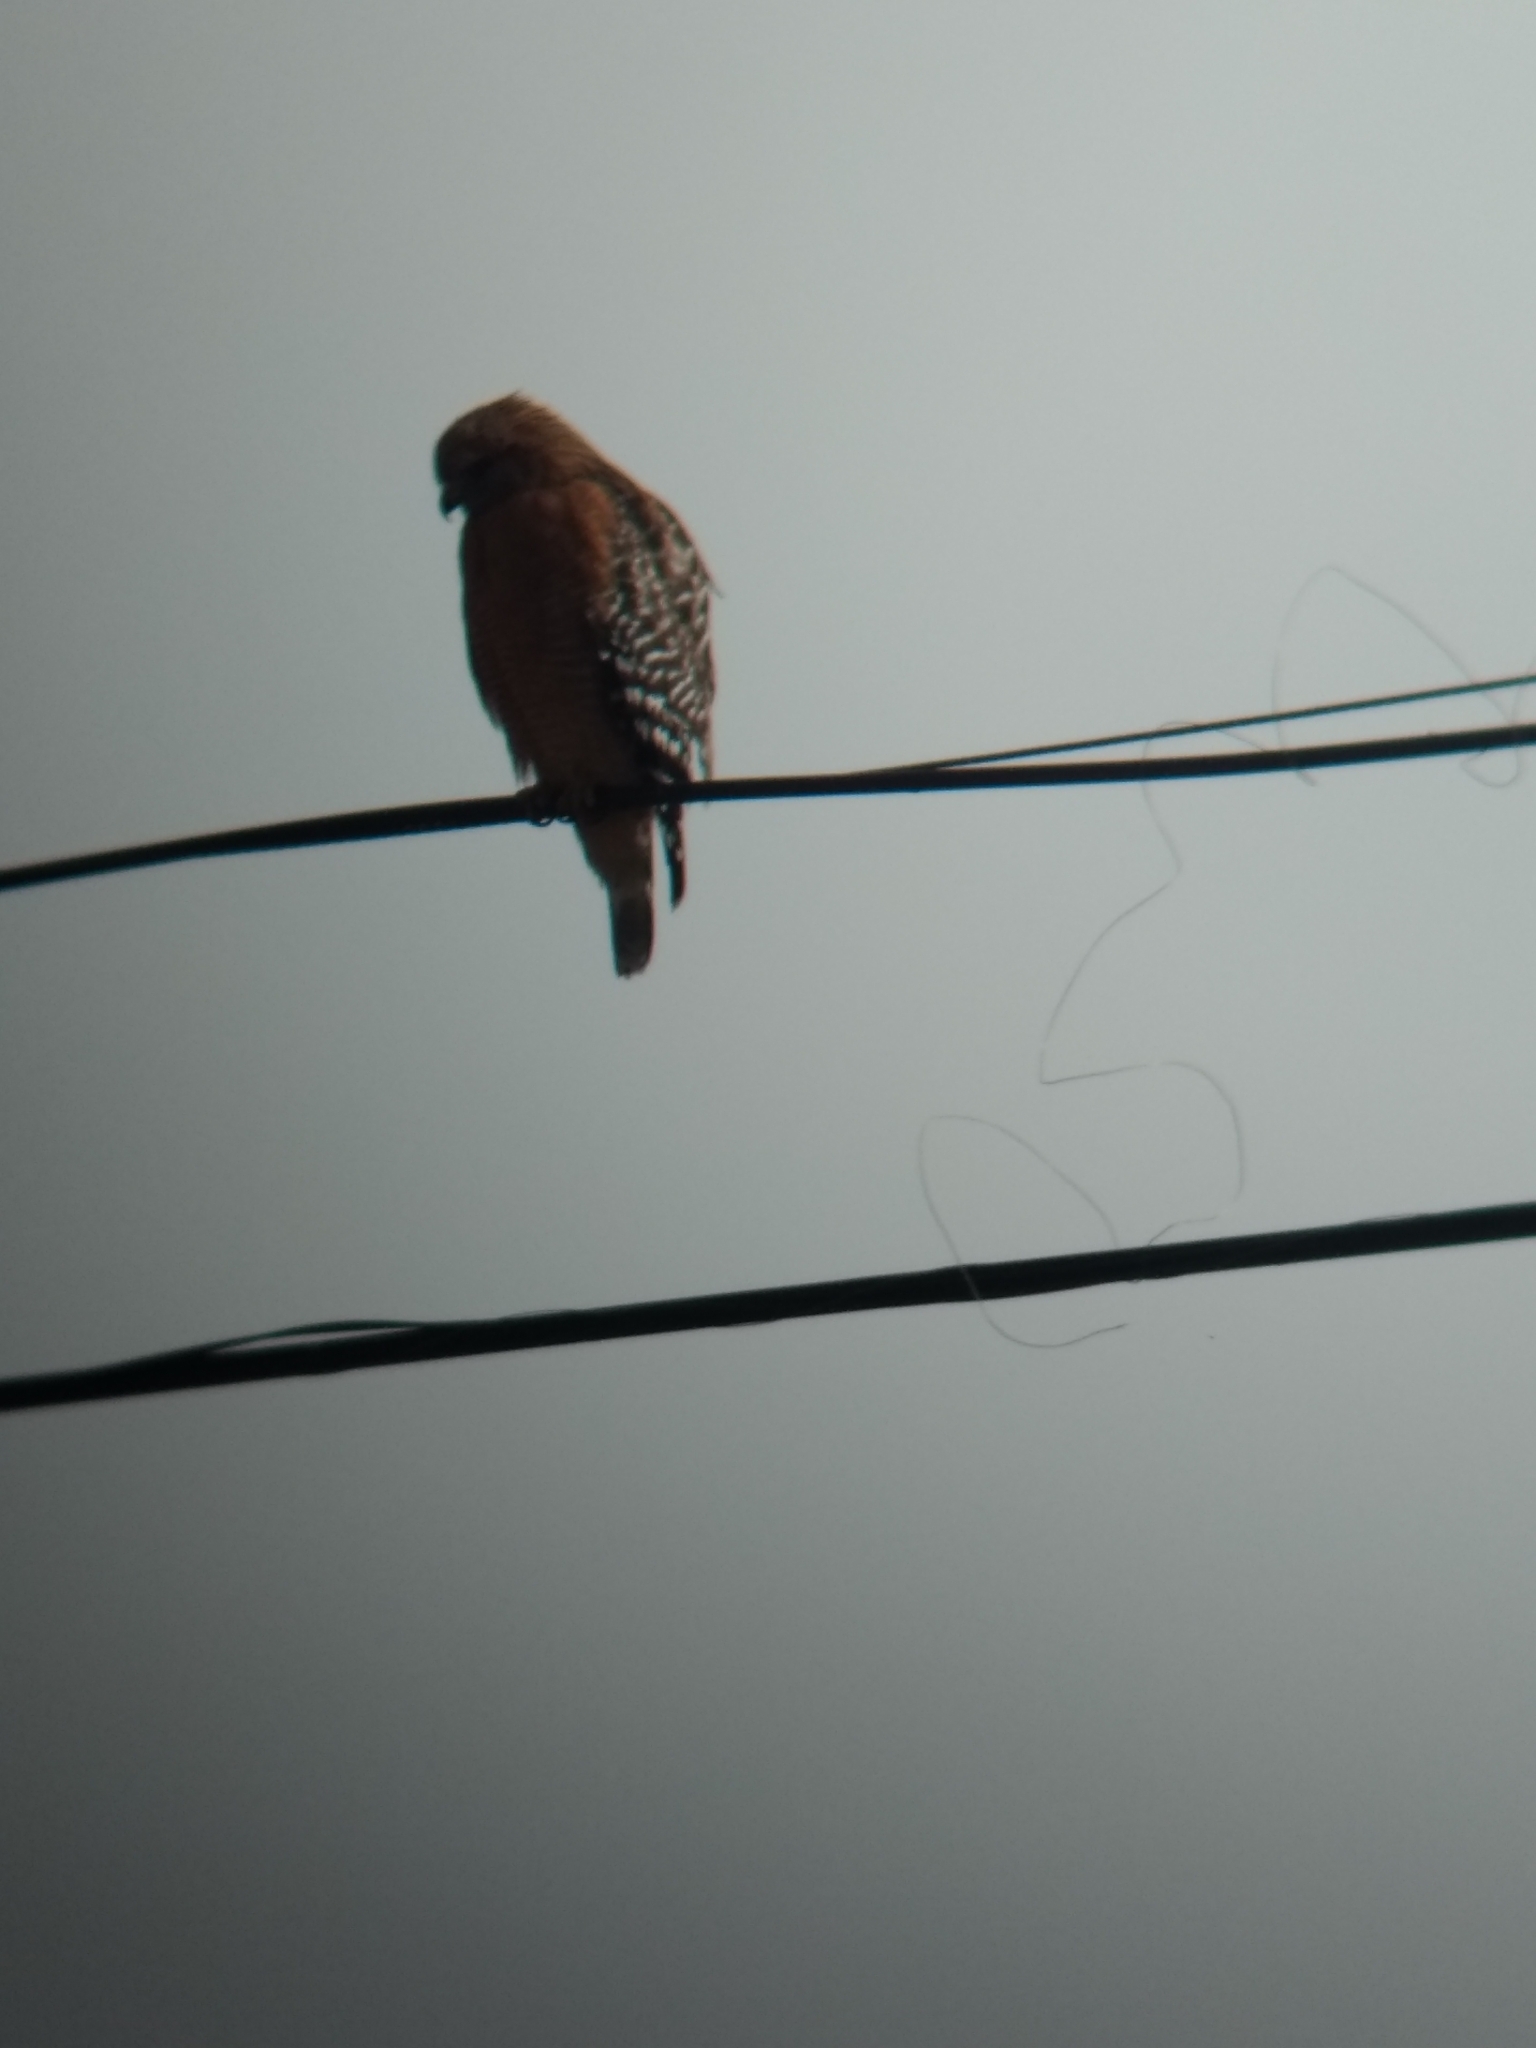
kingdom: Animalia
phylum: Chordata
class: Aves
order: Accipitriformes
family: Accipitridae
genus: Buteo
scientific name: Buteo lineatus
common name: Red-shouldered hawk
